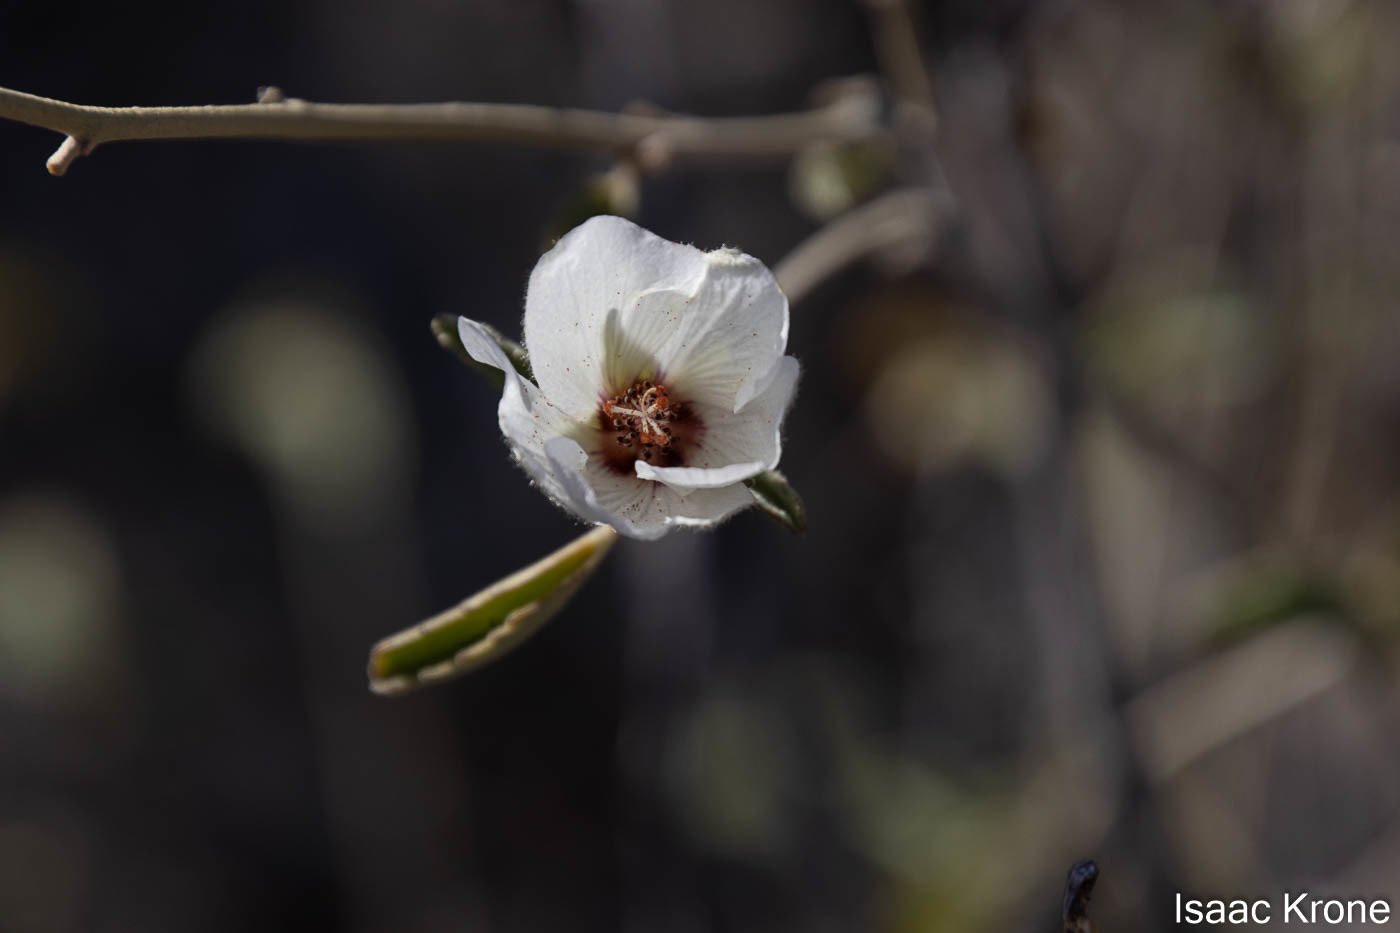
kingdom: Plantae
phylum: Tracheophyta
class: Magnoliopsida
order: Malvales
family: Malvaceae
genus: Hibiscus
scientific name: Hibiscus denudatus
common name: Paleface
